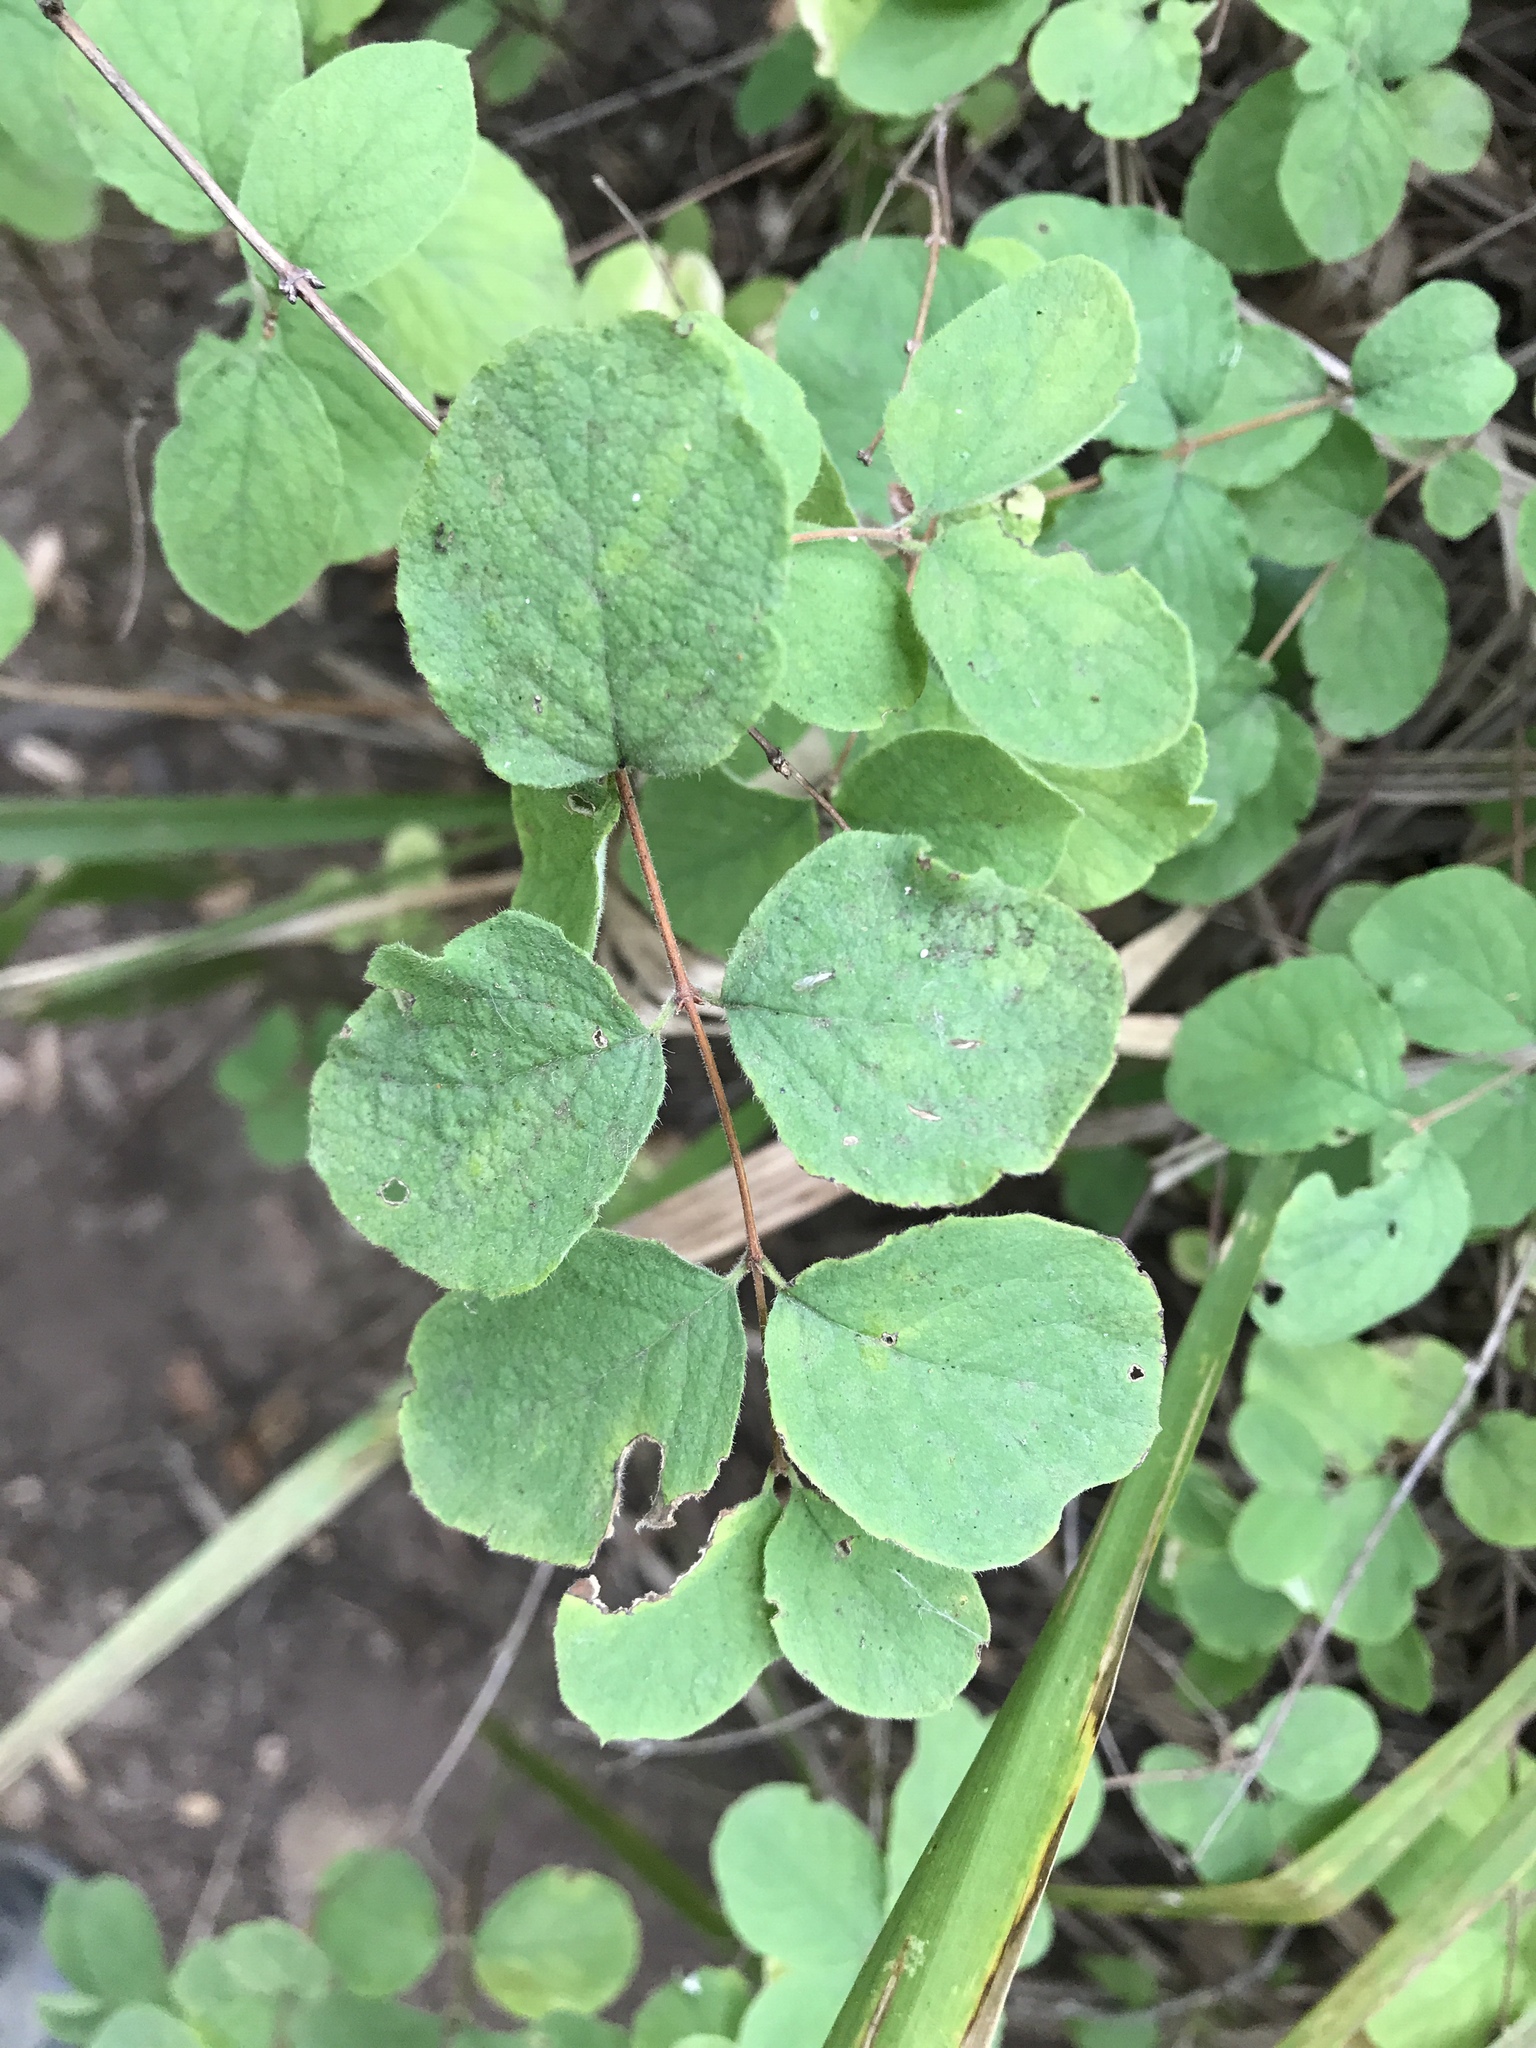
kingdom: Plantae
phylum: Tracheophyta
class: Magnoliopsida
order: Dipsacales
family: Caprifoliaceae
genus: Symphoricarpos
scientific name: Symphoricarpos mollis
